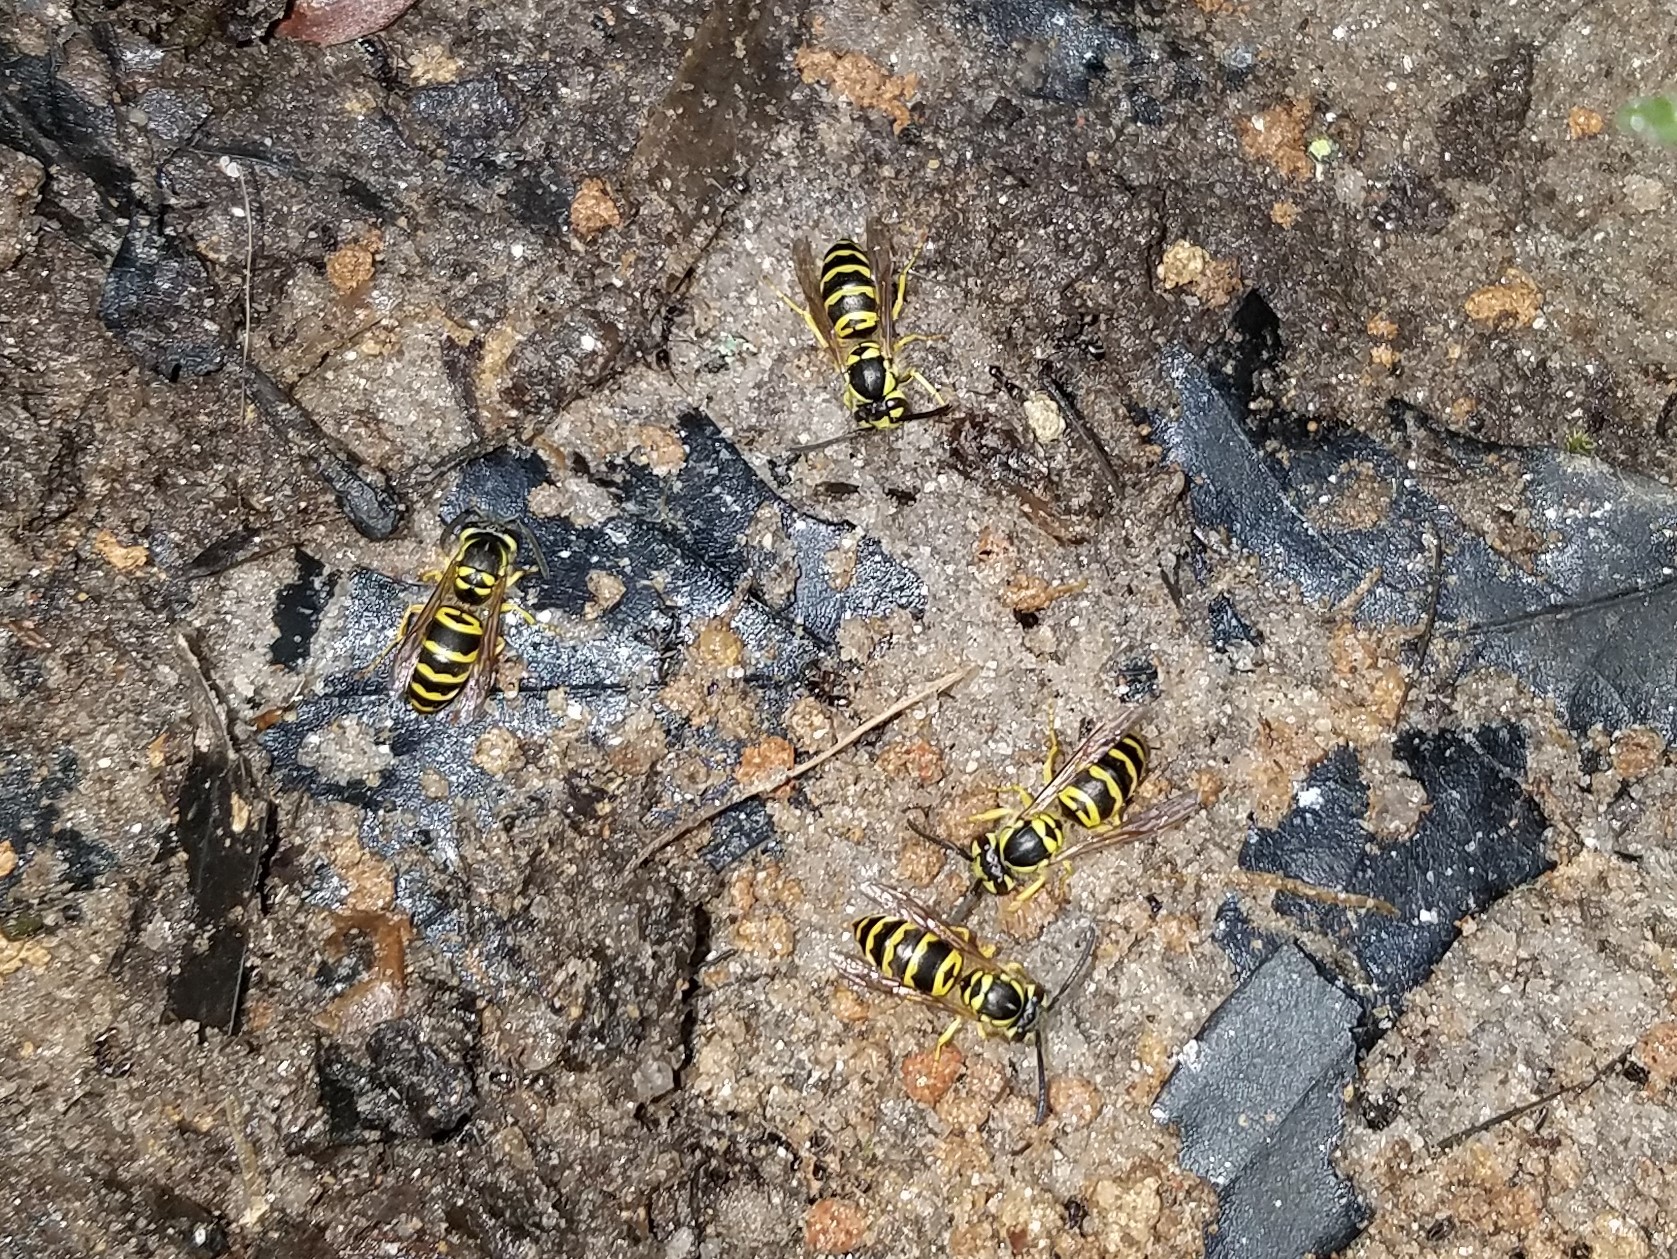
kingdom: Animalia
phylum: Arthropoda
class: Insecta
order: Hymenoptera
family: Vespidae
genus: Vespula
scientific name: Vespula maculifrons
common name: Eastern yellowjacket
